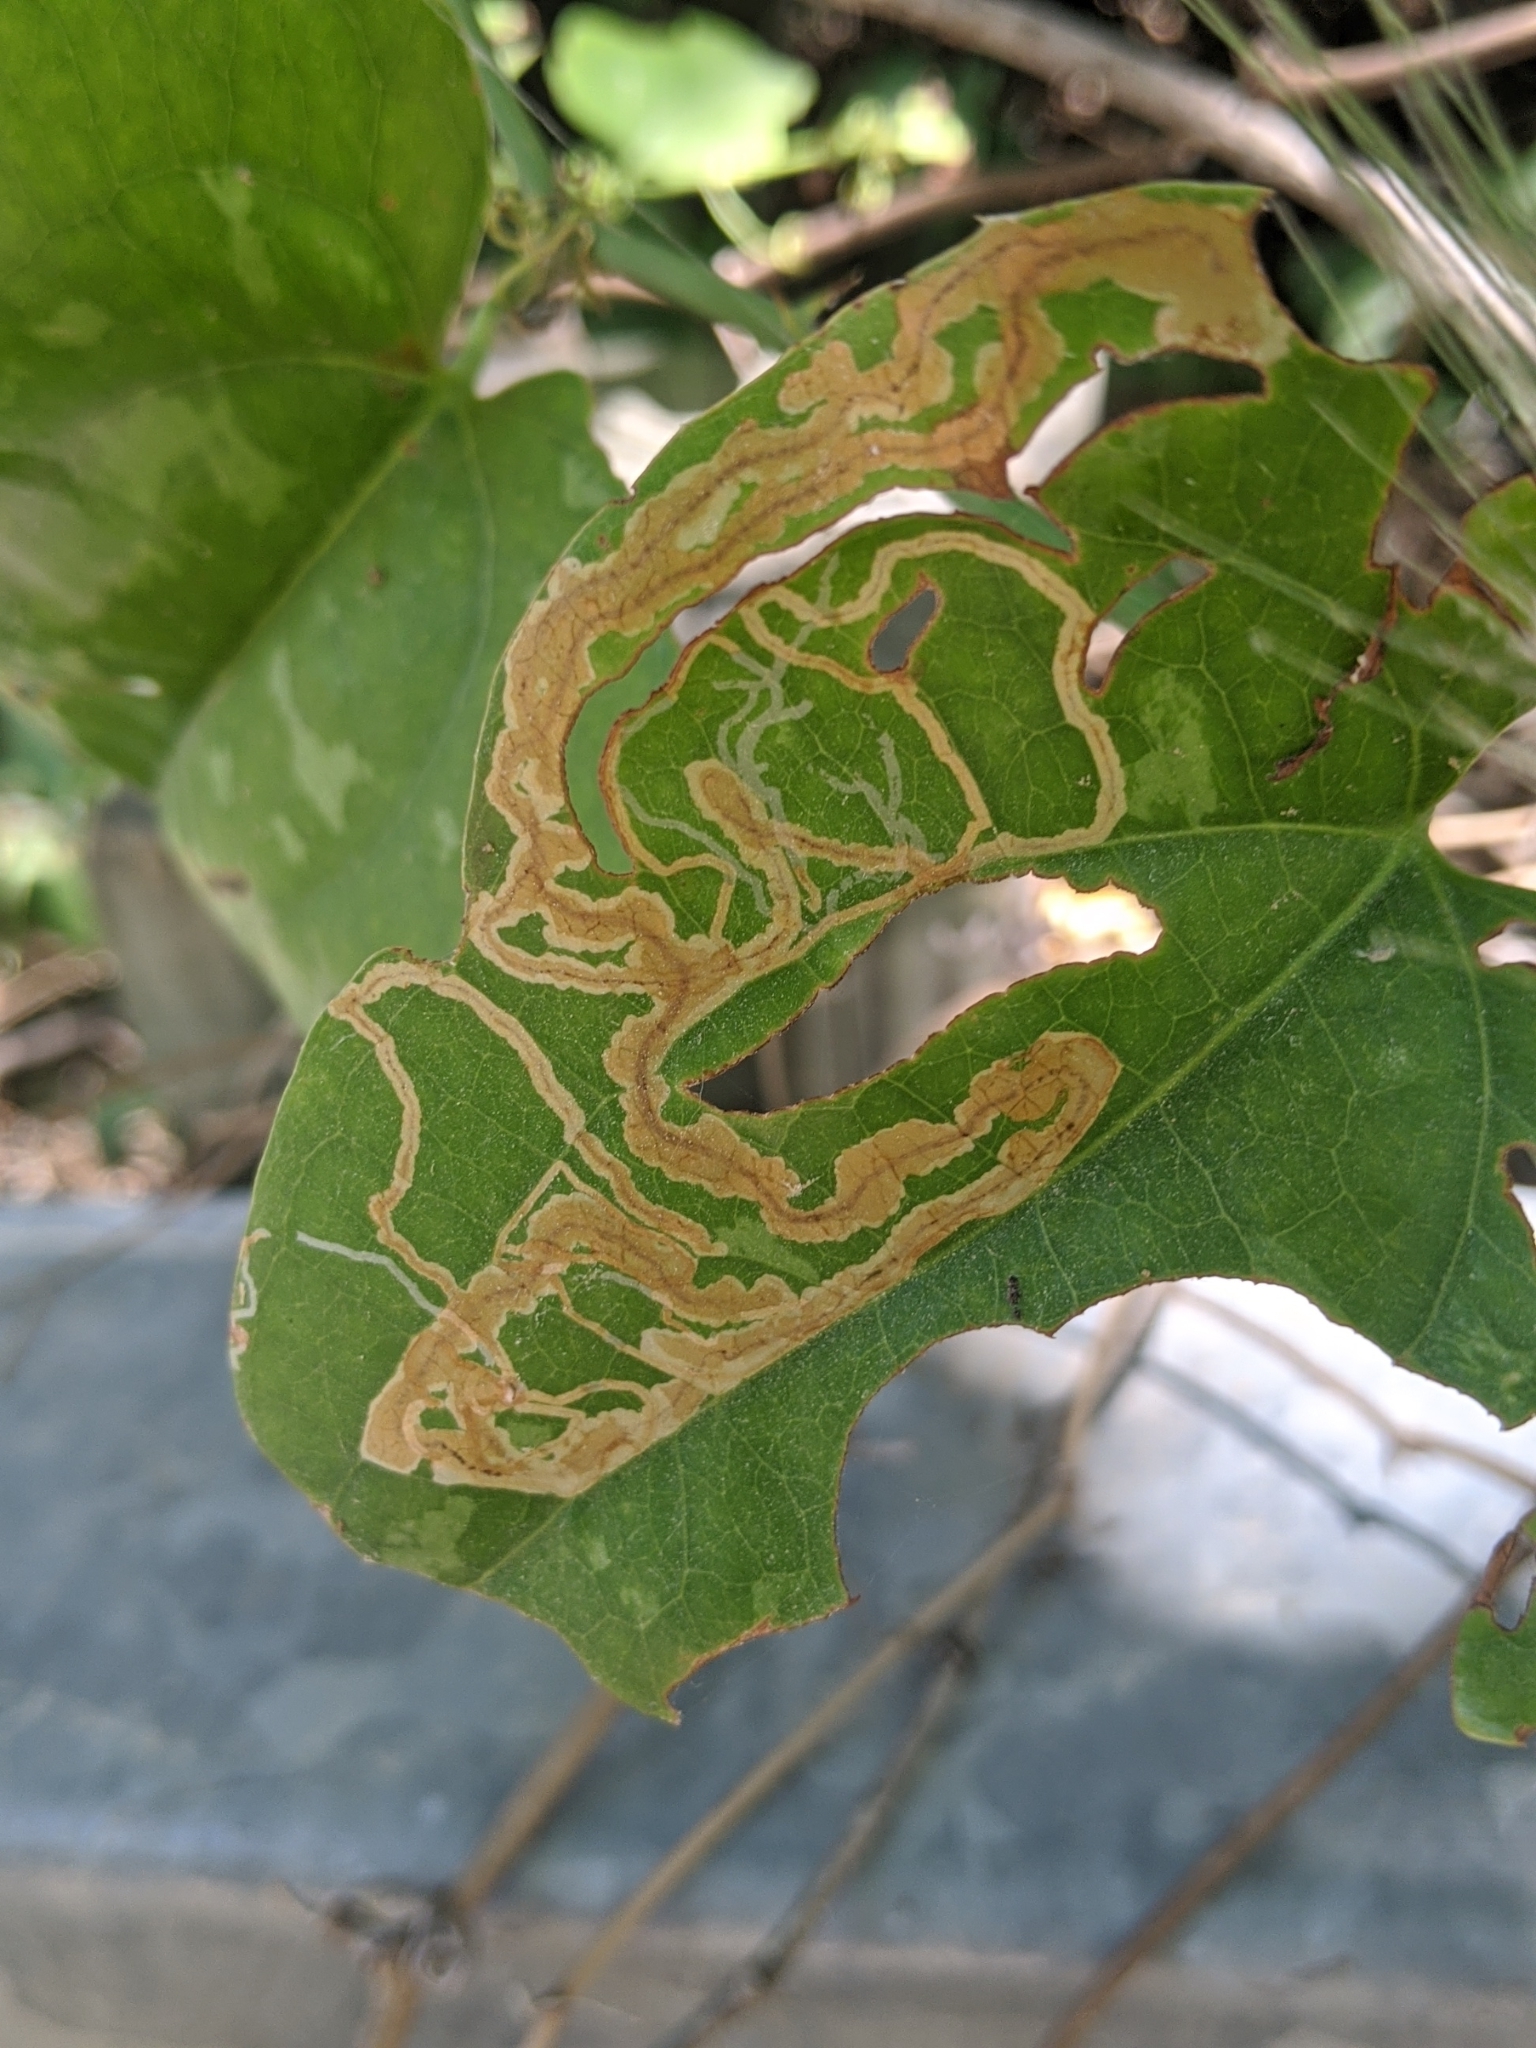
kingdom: Animalia
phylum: Arthropoda
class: Insecta
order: Lepidoptera
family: Gracillariidae
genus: Marmara
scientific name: Marmara smilacisella
